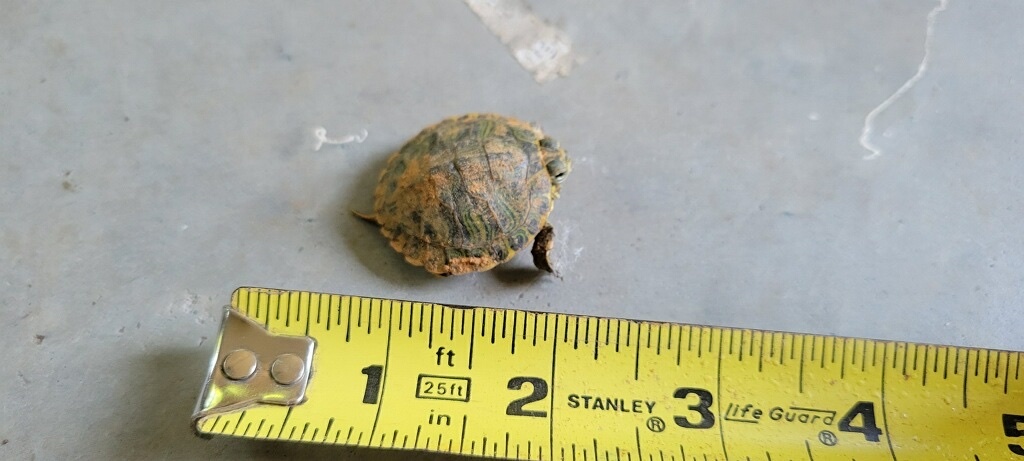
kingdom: Animalia
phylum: Chordata
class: Testudines
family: Emydidae
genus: Trachemys
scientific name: Trachemys scripta
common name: Slider
